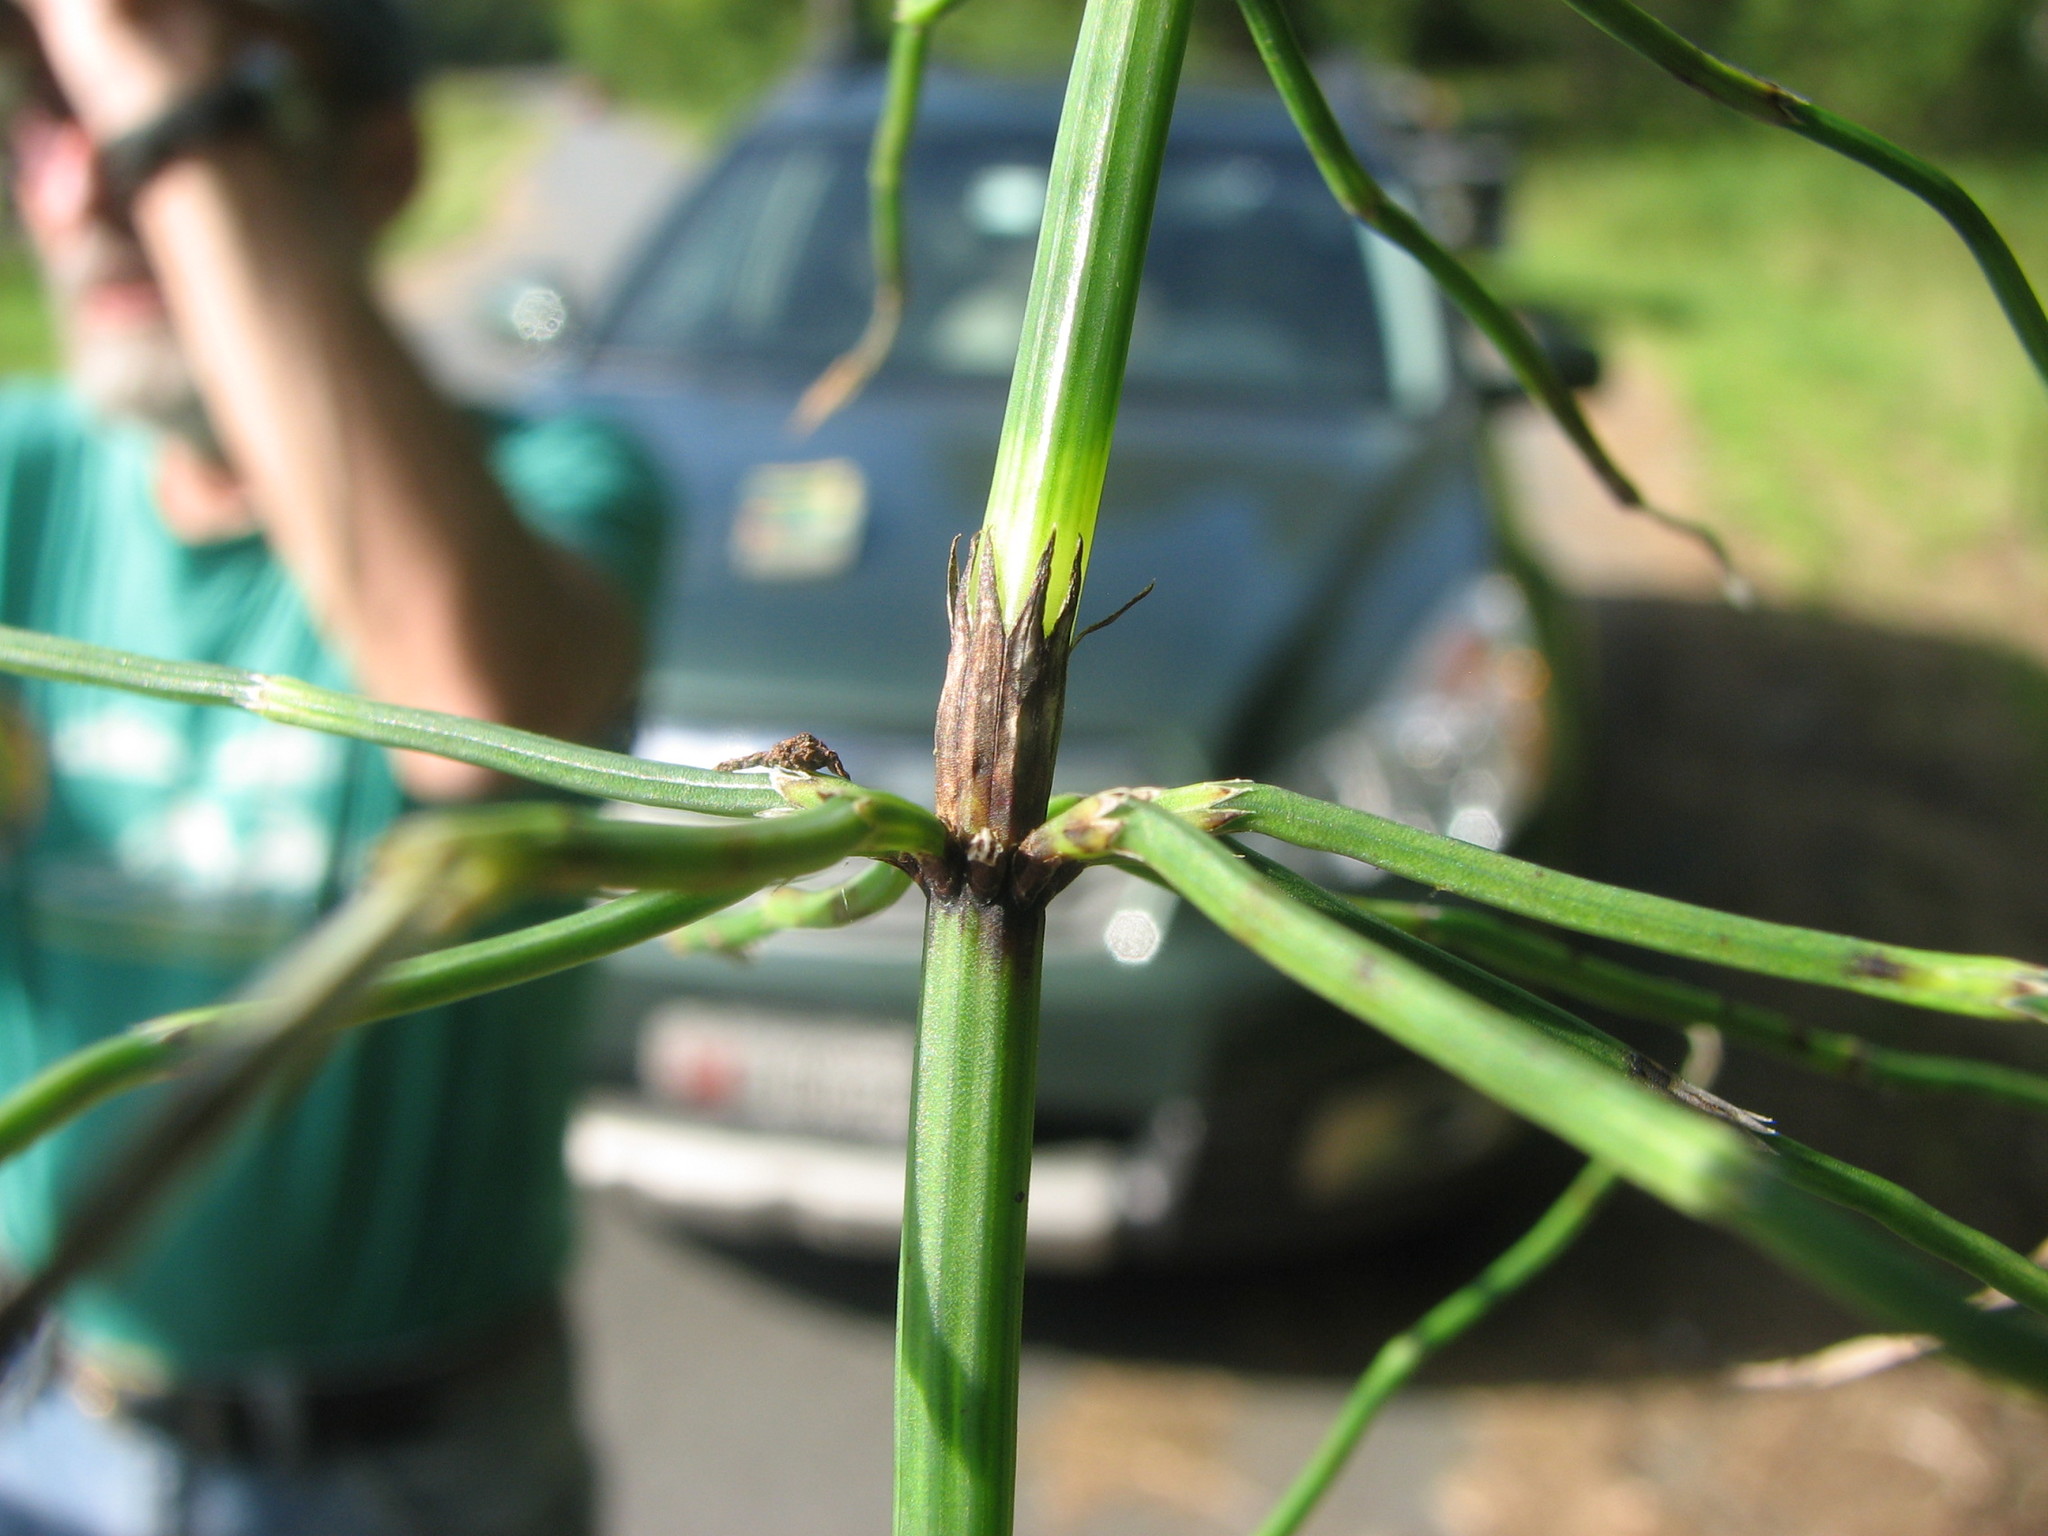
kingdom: Plantae
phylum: Tracheophyta
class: Polypodiopsida
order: Equisetales
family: Equisetaceae
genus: Equisetum
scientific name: Equisetum palustre
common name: Marsh horsetail
